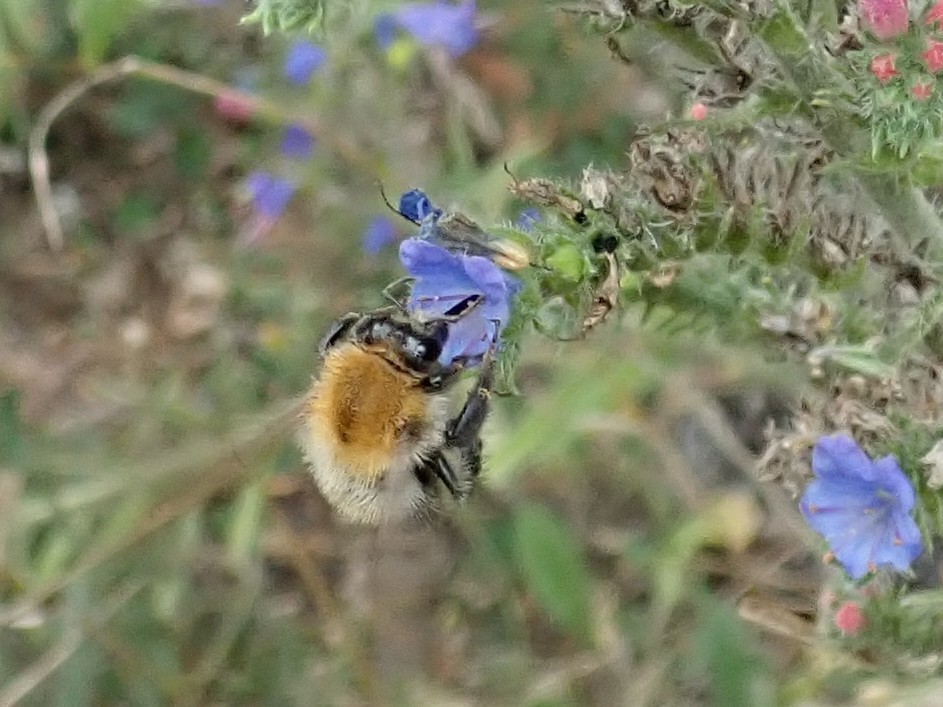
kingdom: Animalia
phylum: Arthropoda
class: Insecta
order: Hymenoptera
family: Apidae
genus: Bombus
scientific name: Bombus pascuorum
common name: Common carder bee
